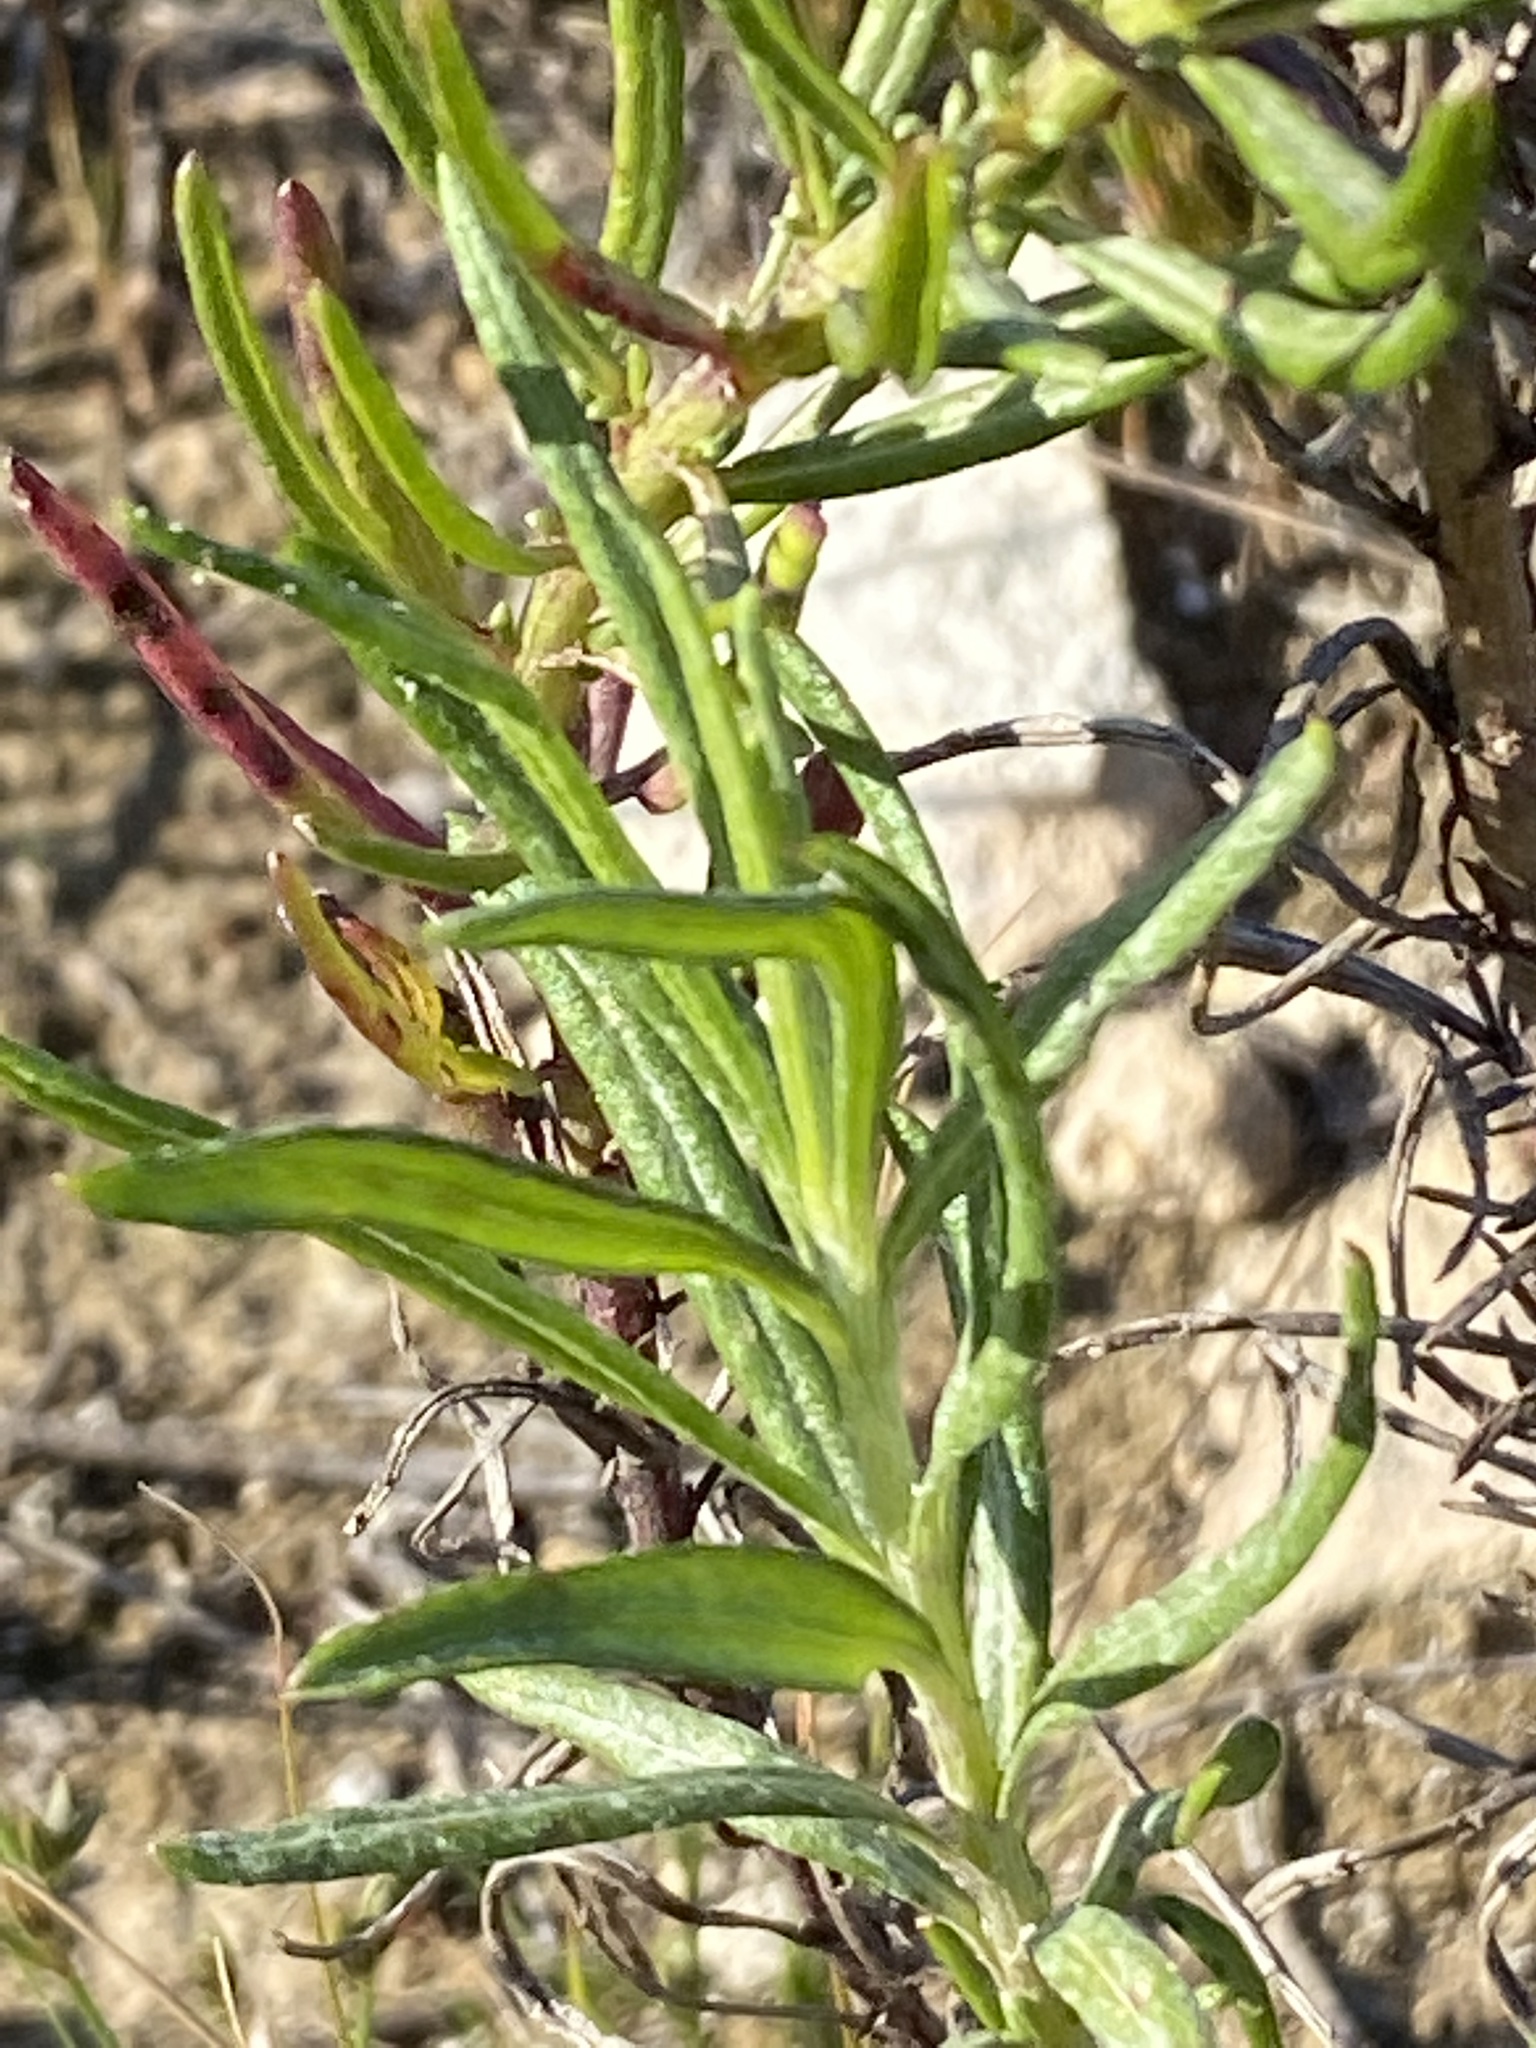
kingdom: Plantae
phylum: Tracheophyta
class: Magnoliopsida
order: Asterales
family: Asteraceae
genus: Senecio
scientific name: Senecio burchellii
